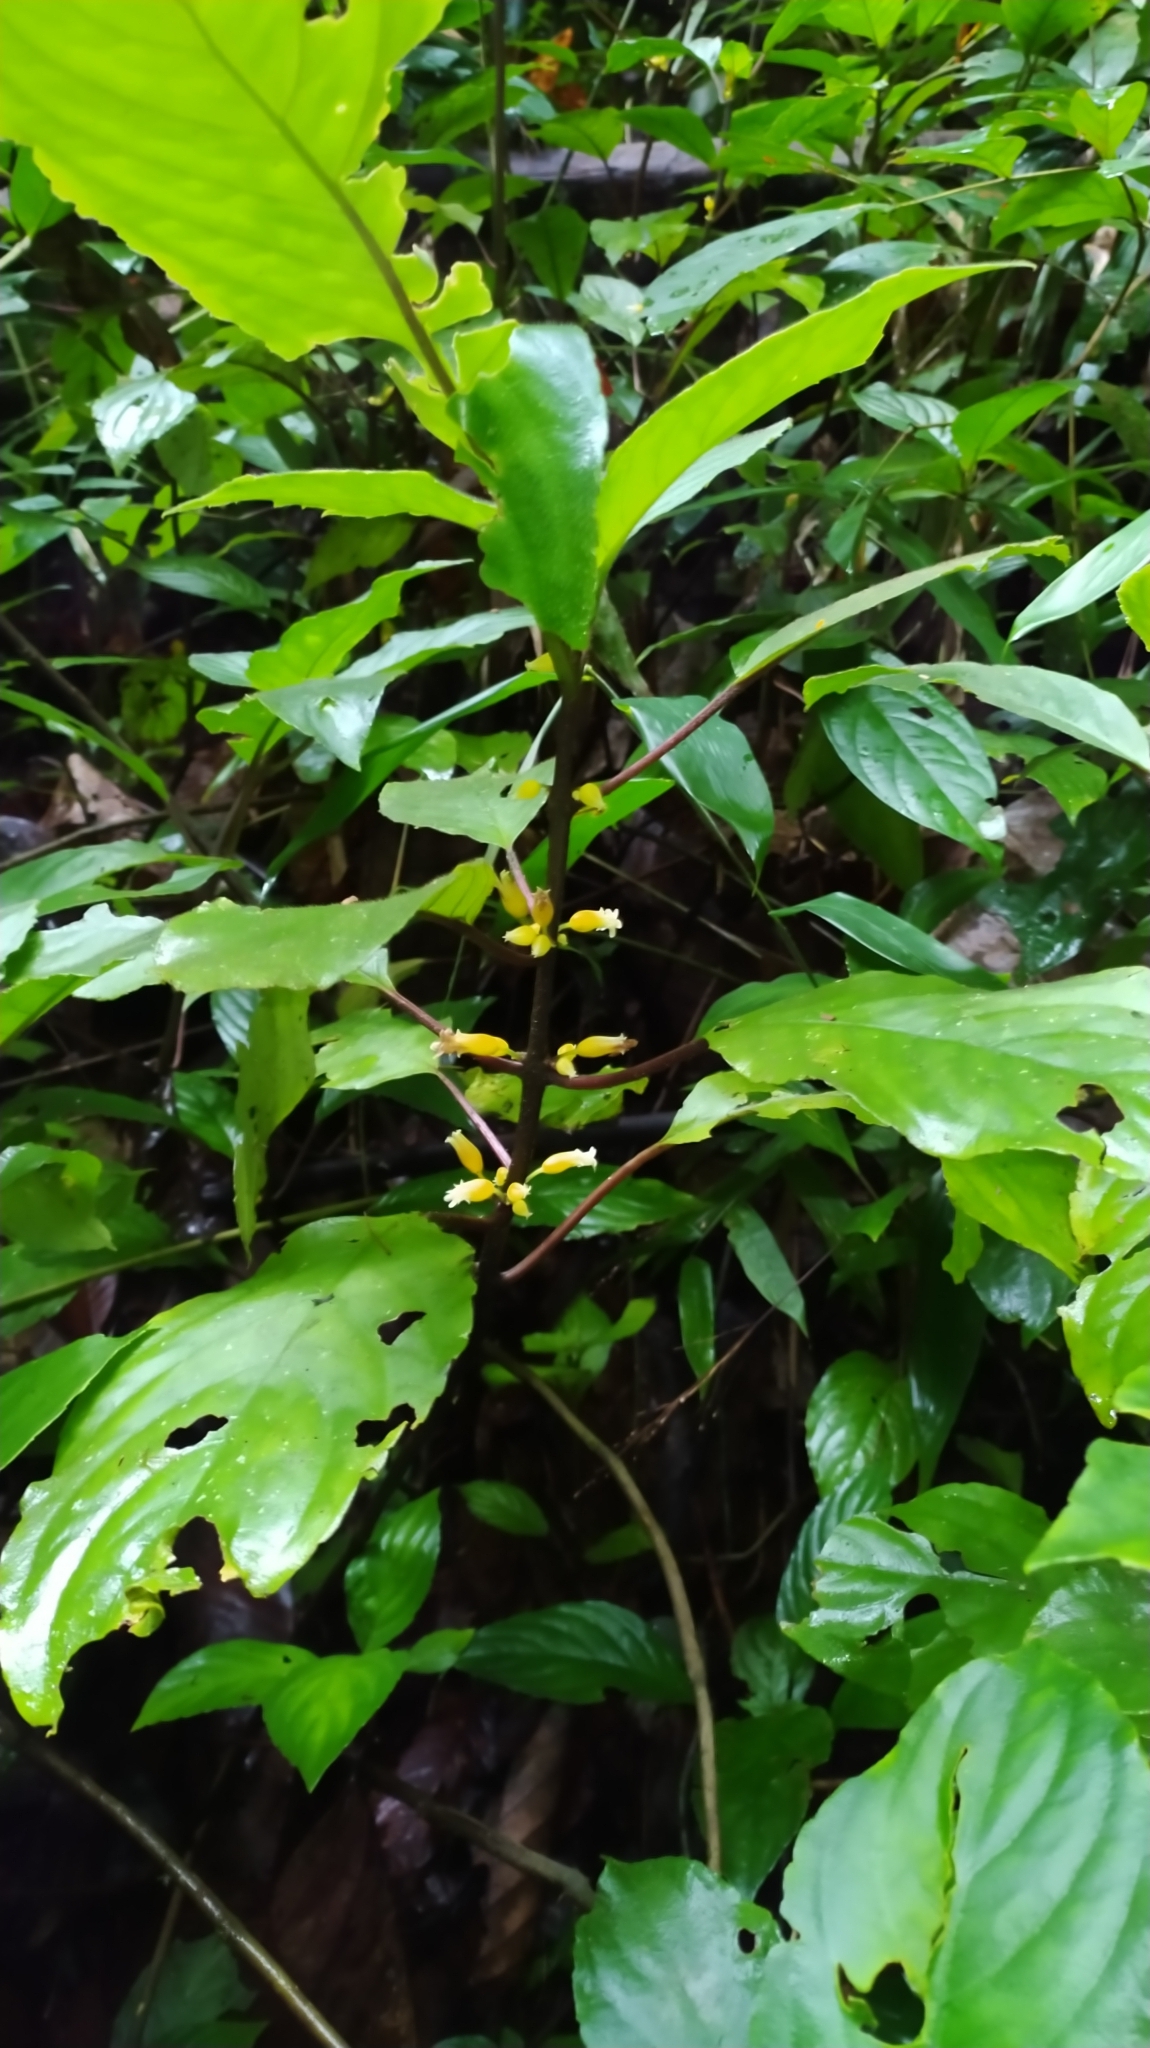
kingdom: Plantae
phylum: Tracheophyta
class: Magnoliopsida
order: Lamiales
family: Gesneriaceae
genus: Besleria
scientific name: Besleria insolita
